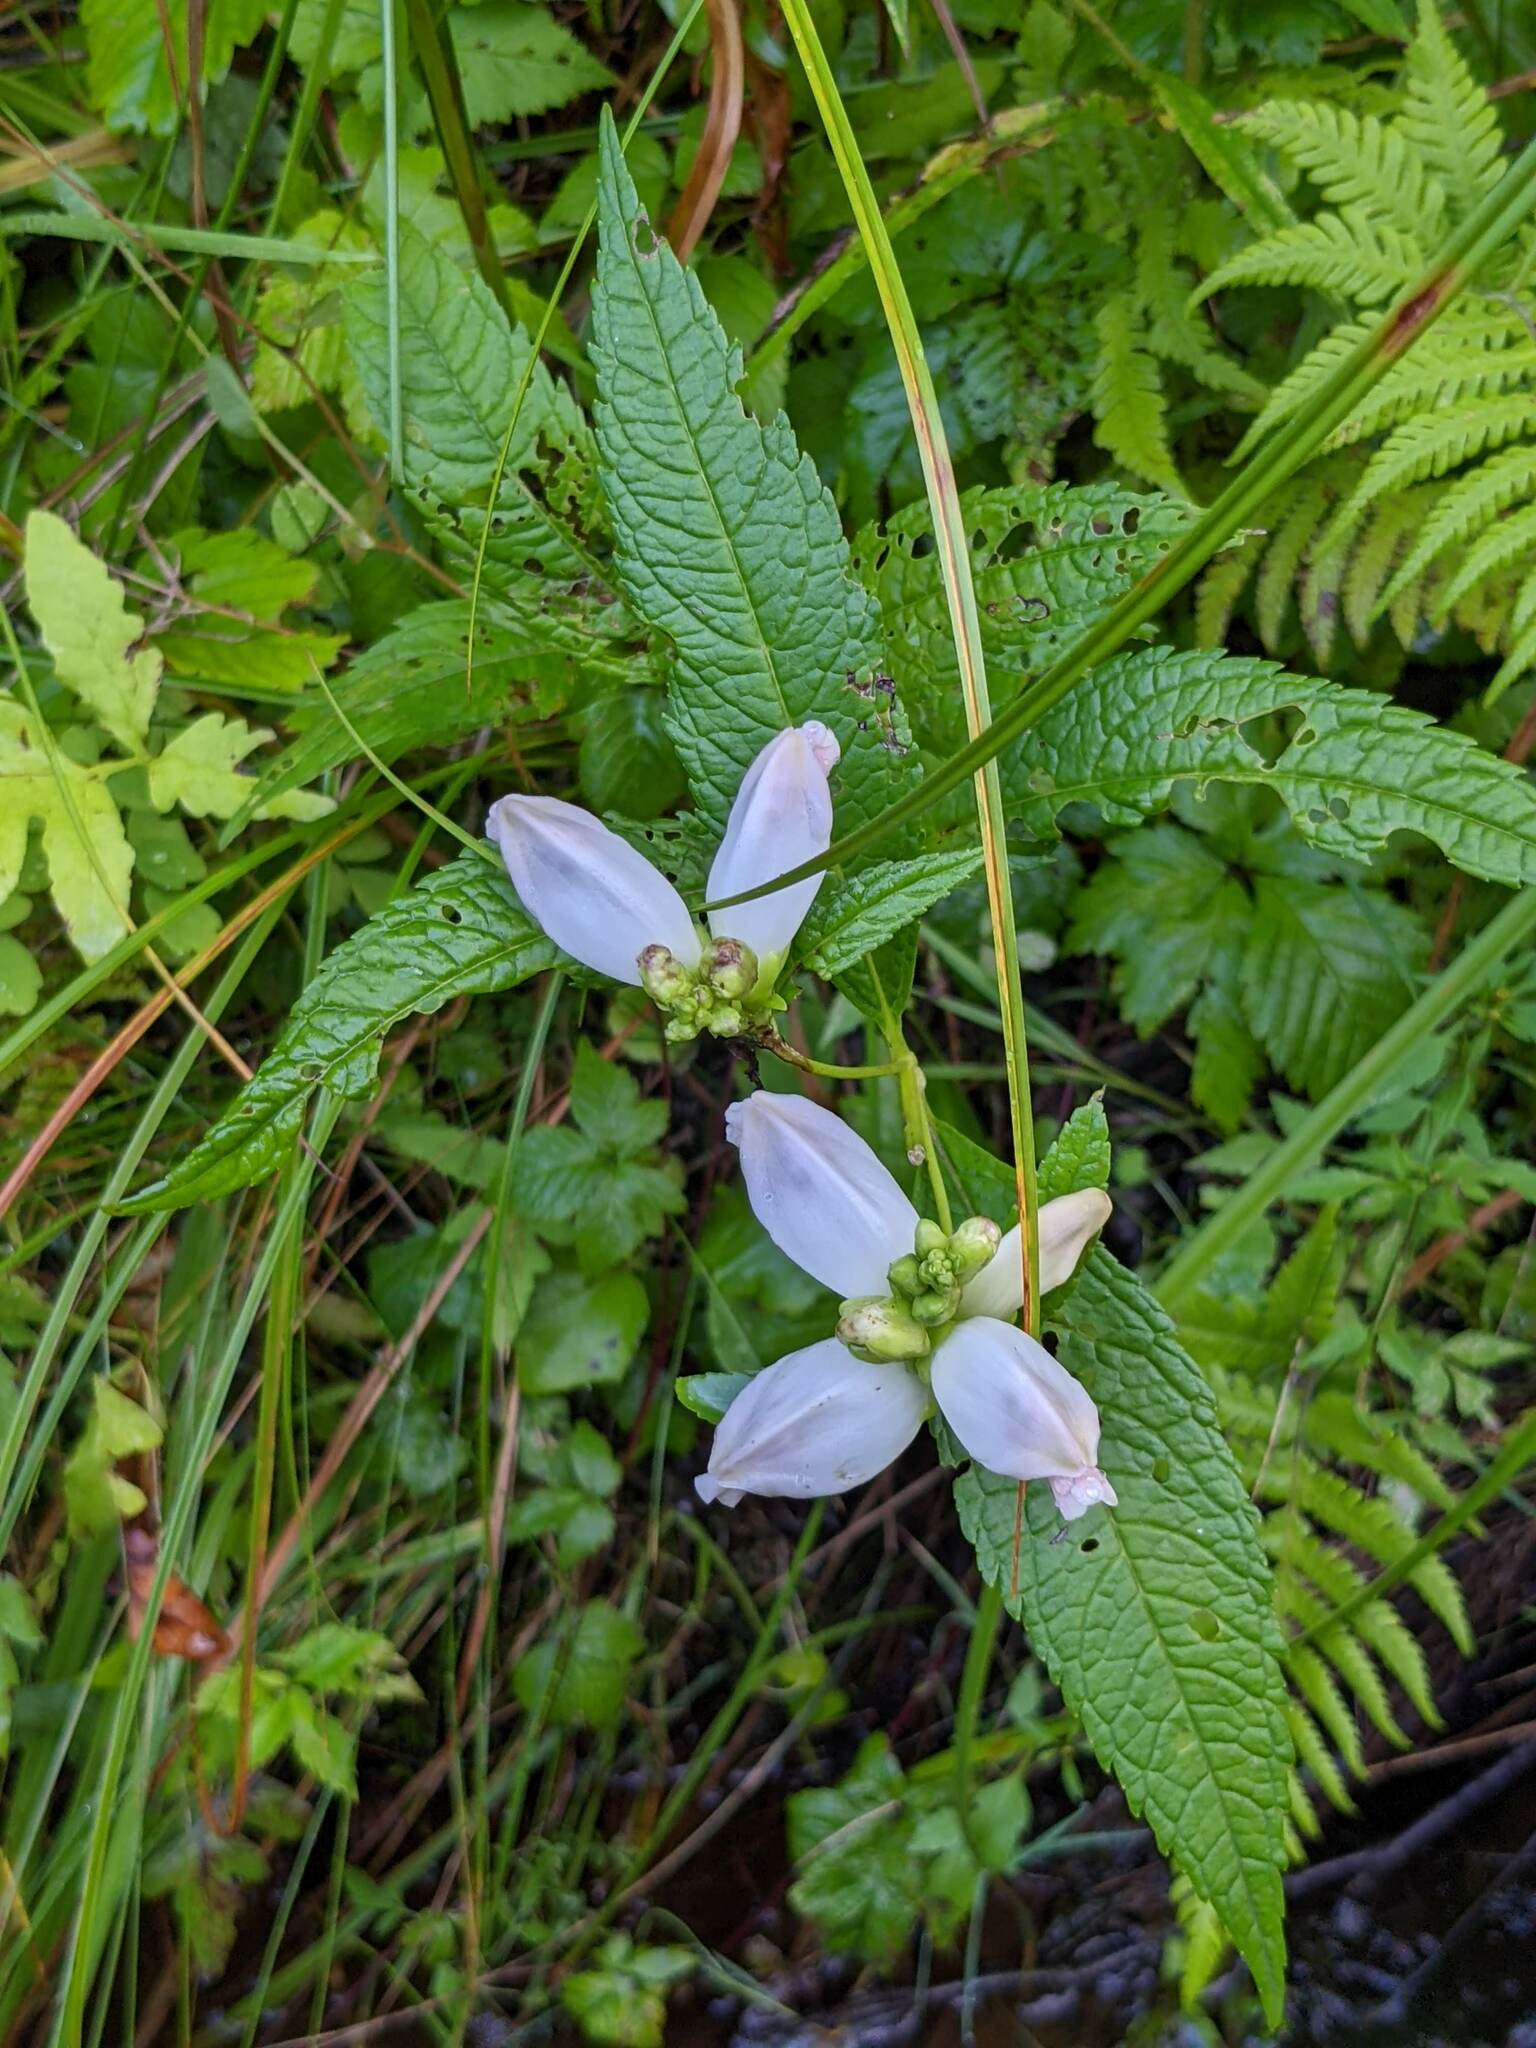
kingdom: Plantae
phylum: Tracheophyta
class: Magnoliopsida
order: Lamiales
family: Plantaginaceae
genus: Chelone
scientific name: Chelone glabra
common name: Snakehead
